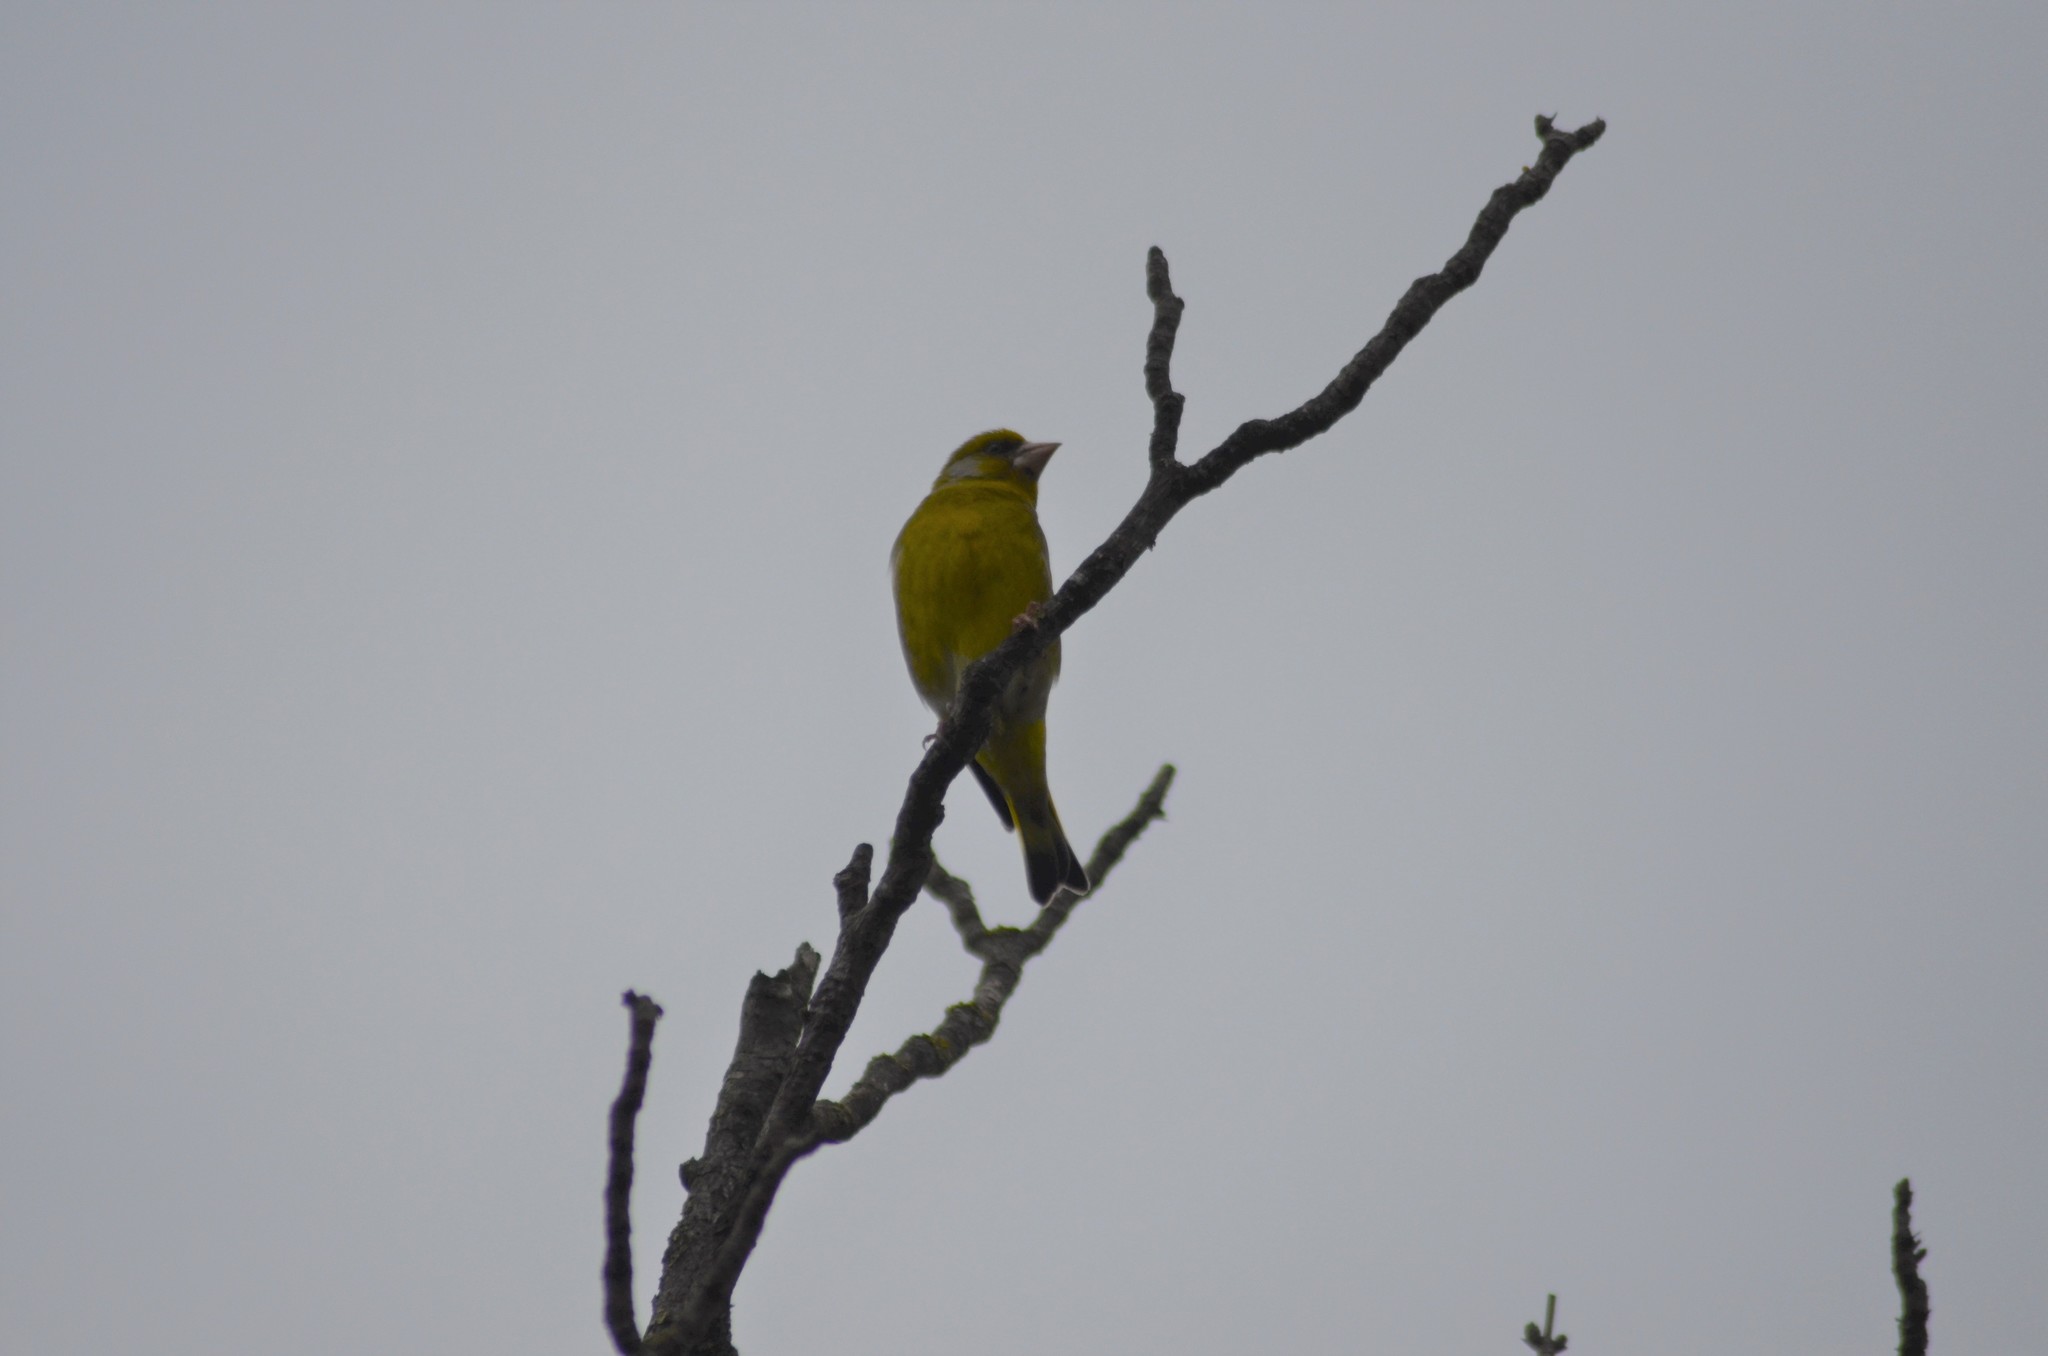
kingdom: Plantae
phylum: Tracheophyta
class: Liliopsida
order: Poales
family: Poaceae
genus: Chloris
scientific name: Chloris chloris
